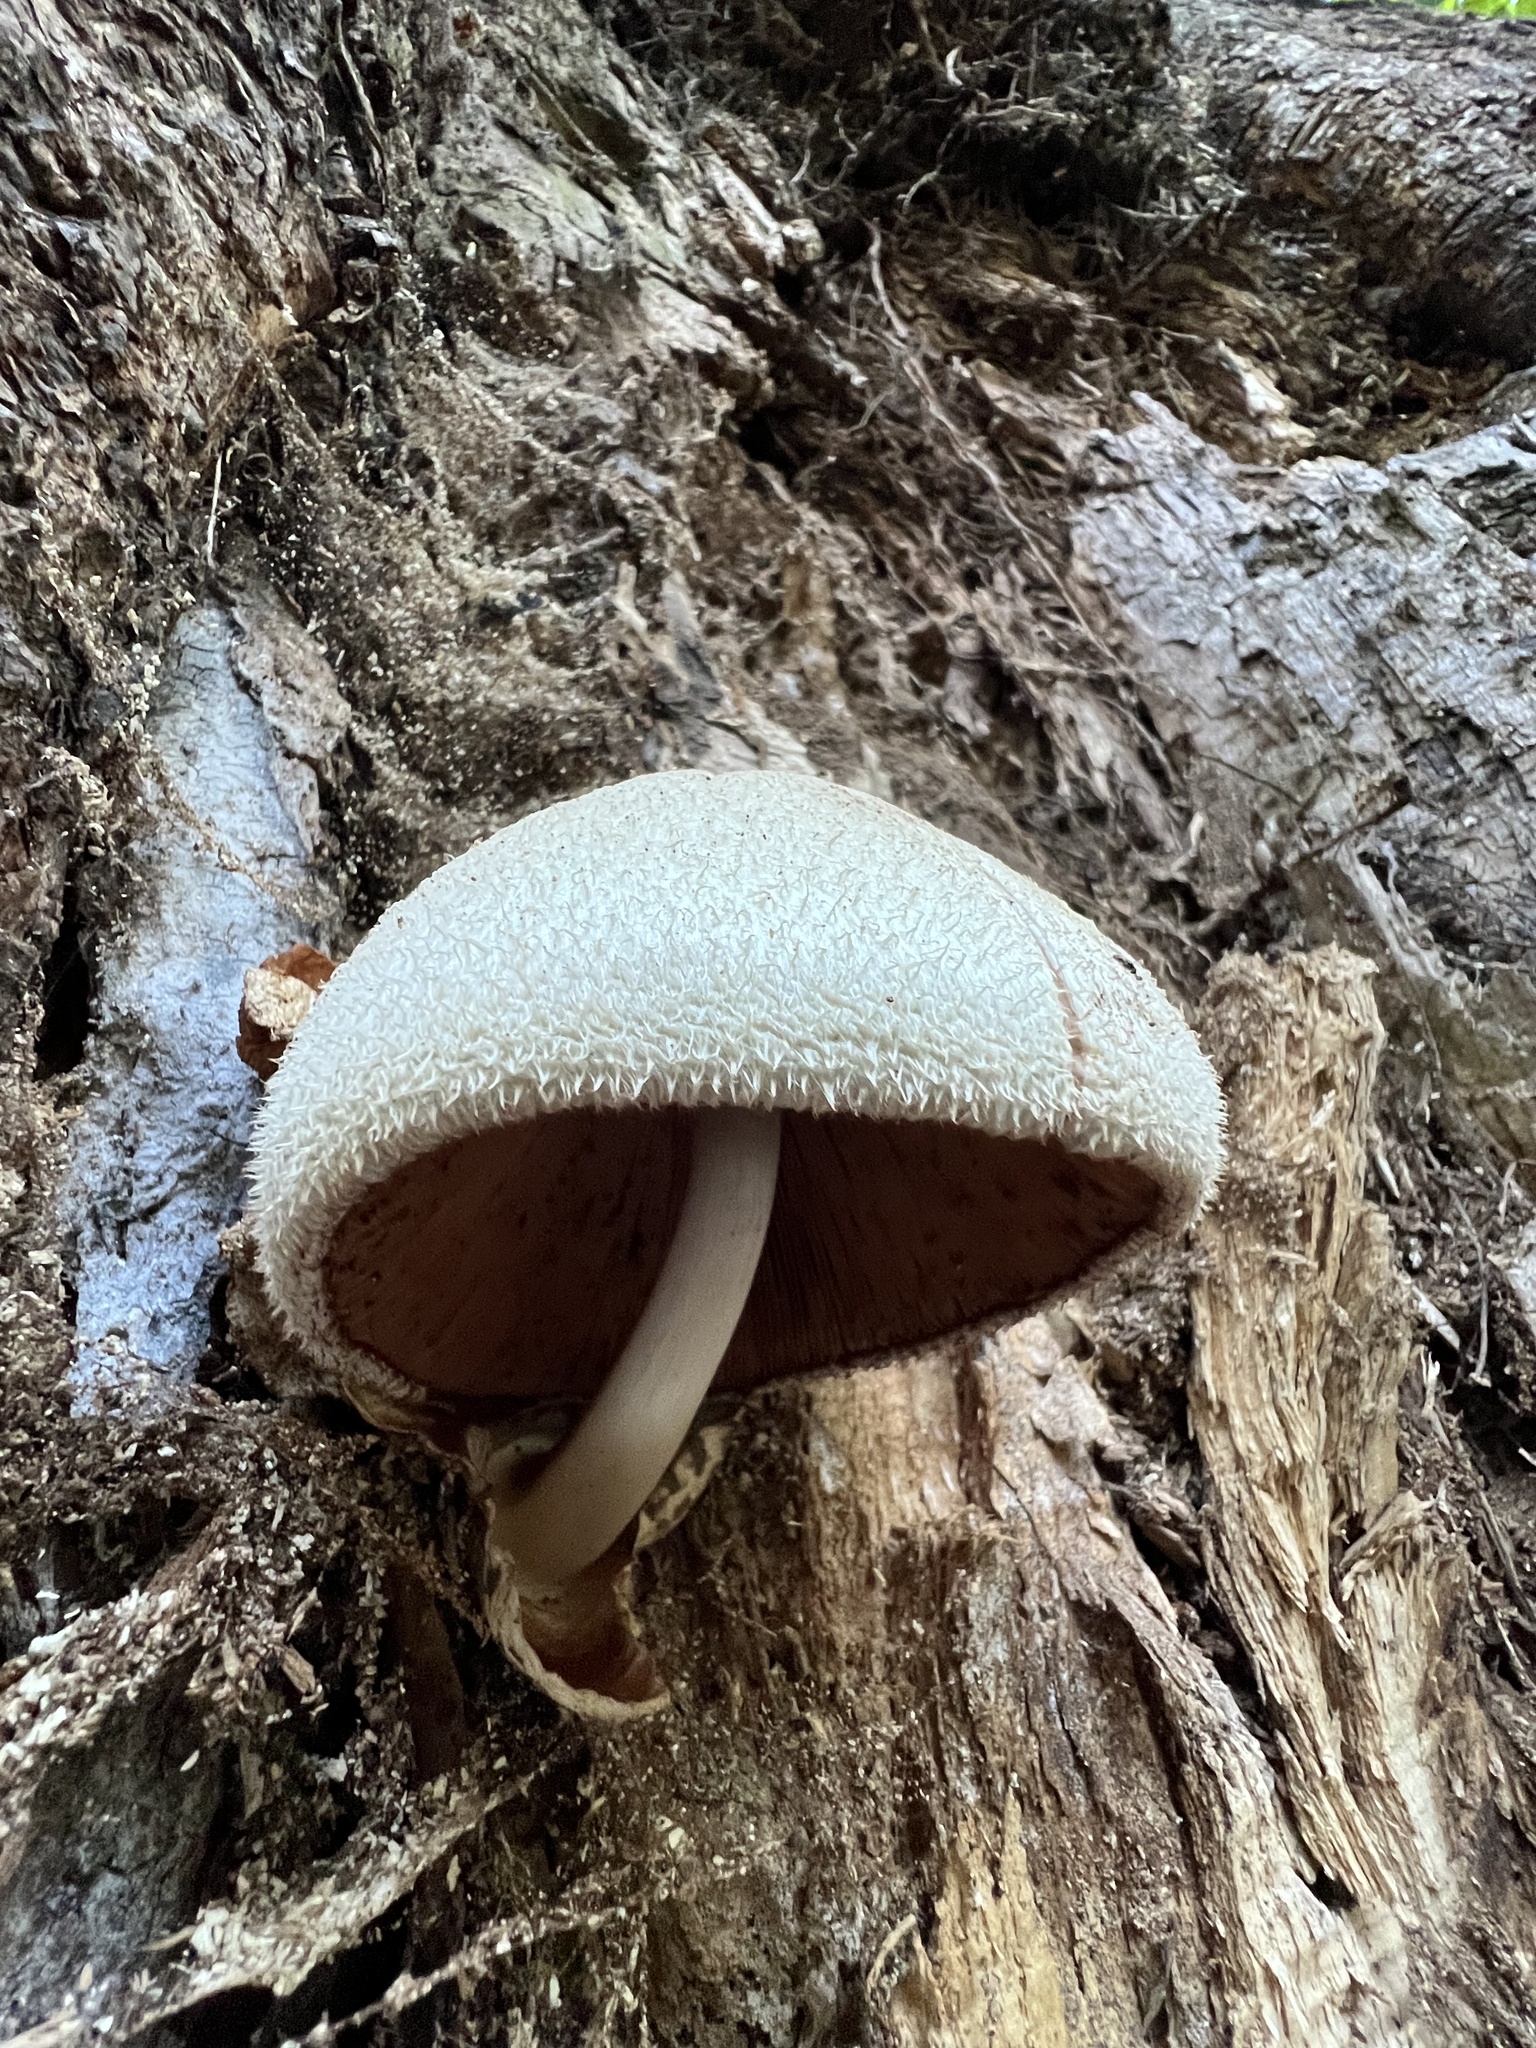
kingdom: Fungi
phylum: Basidiomycota
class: Agaricomycetes
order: Agaricales
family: Pluteaceae
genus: Volvariella
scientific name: Volvariella bombycina
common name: Silky rosegill
